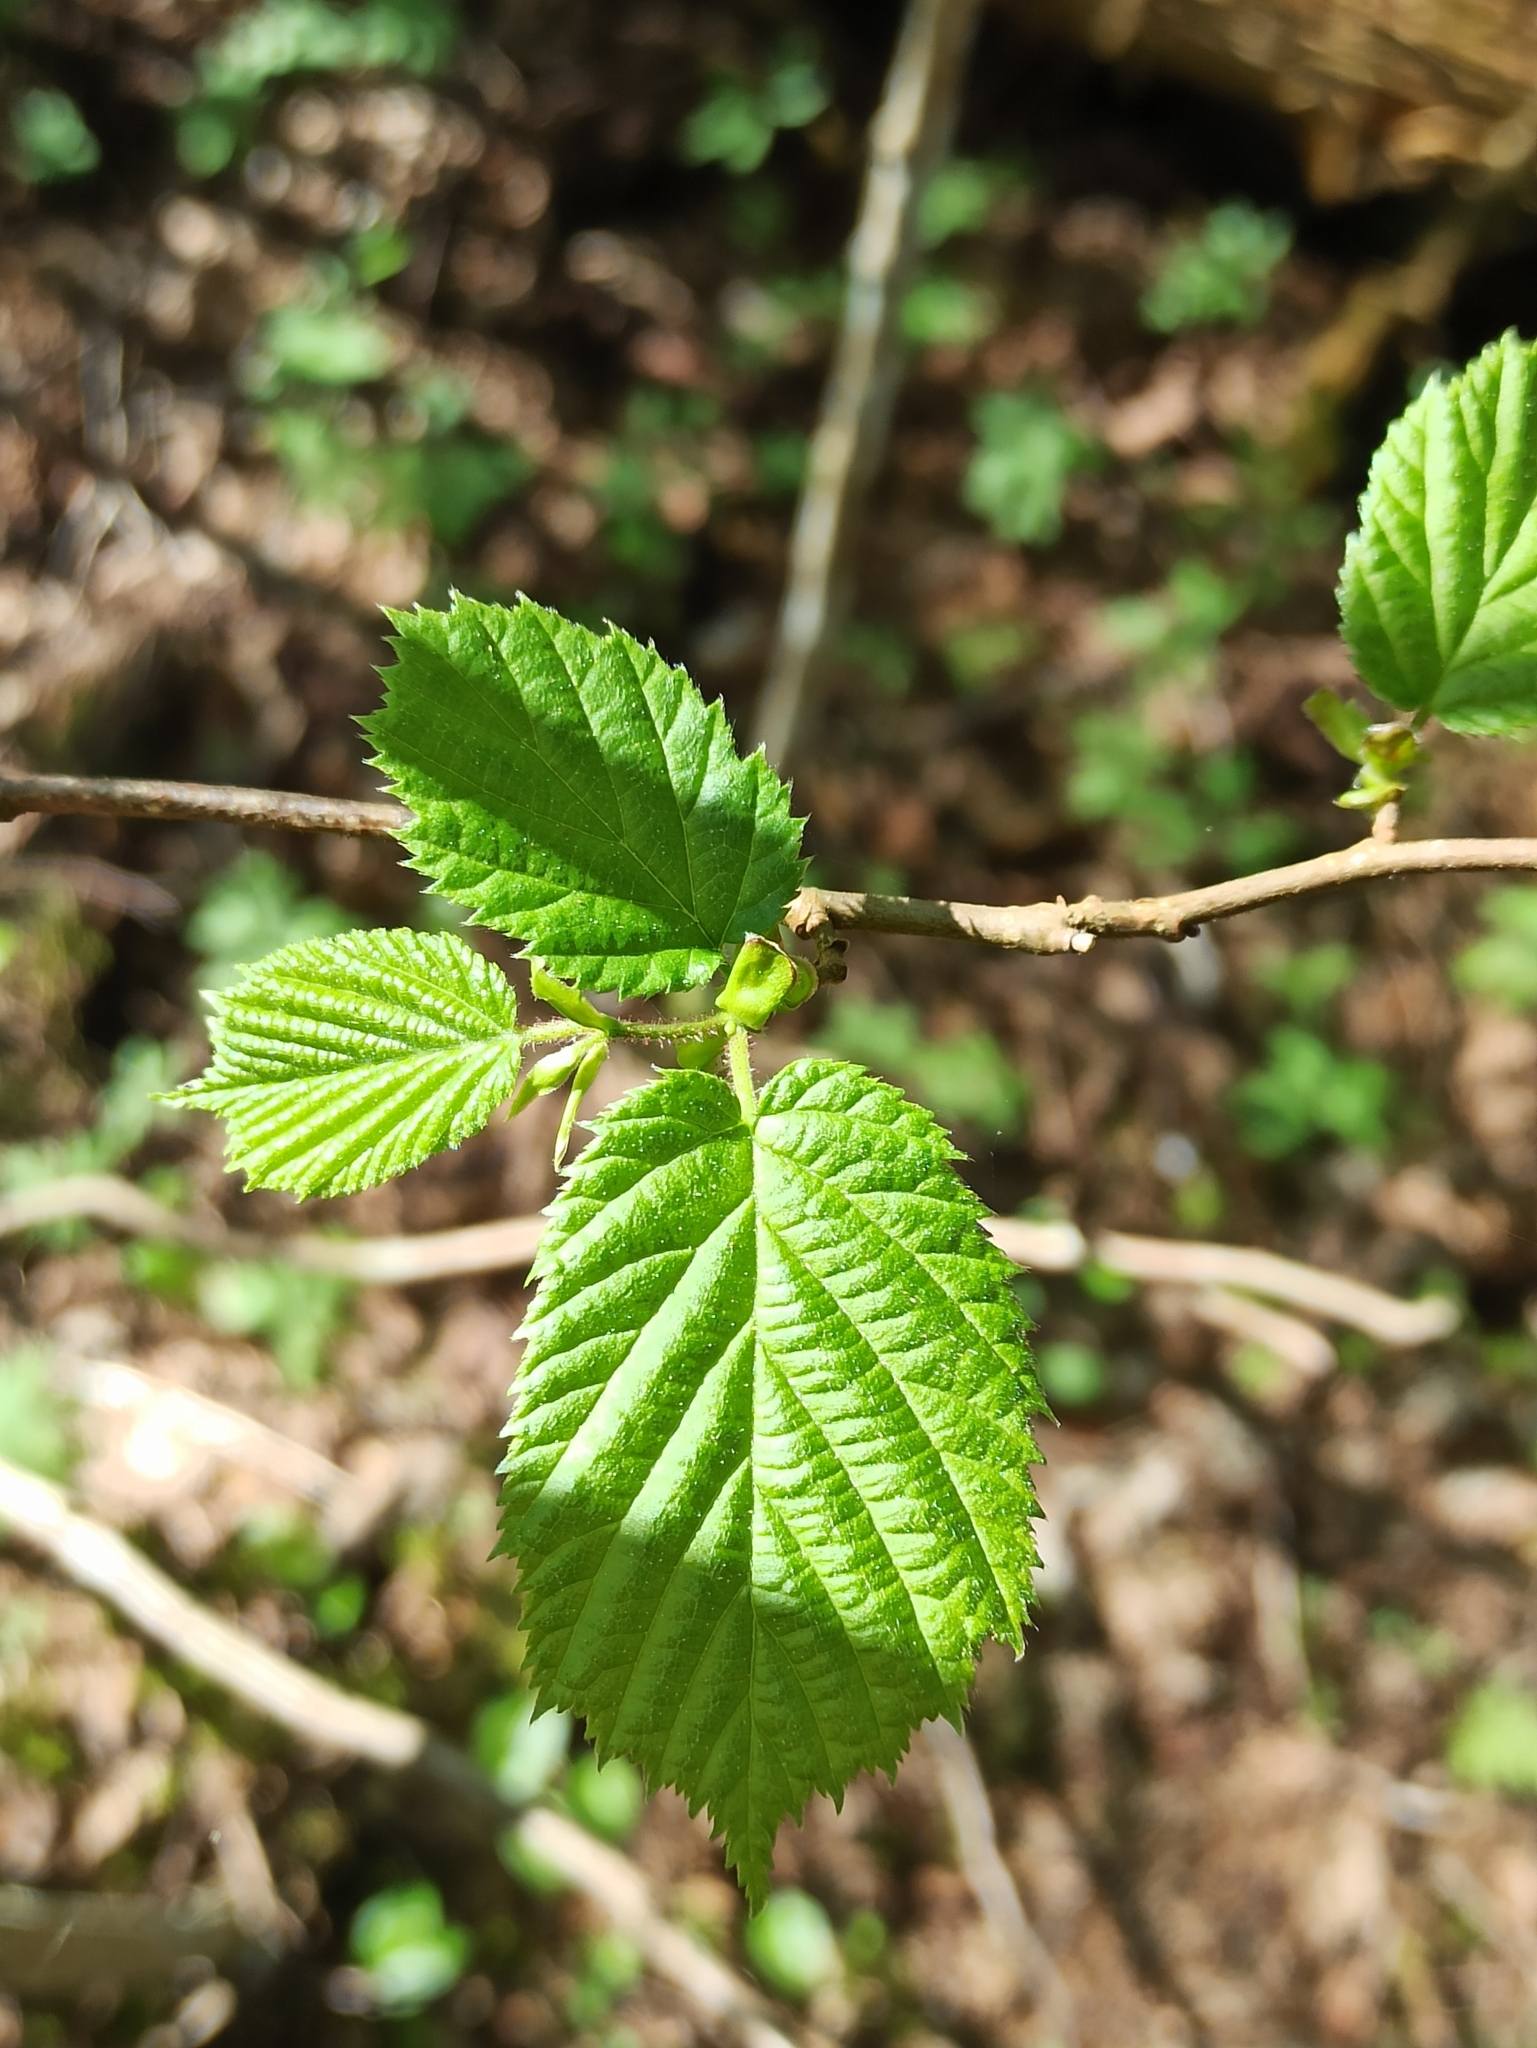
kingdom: Plantae
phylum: Tracheophyta
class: Magnoliopsida
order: Fagales
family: Betulaceae
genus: Corylus
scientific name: Corylus avellana
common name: European hazel
